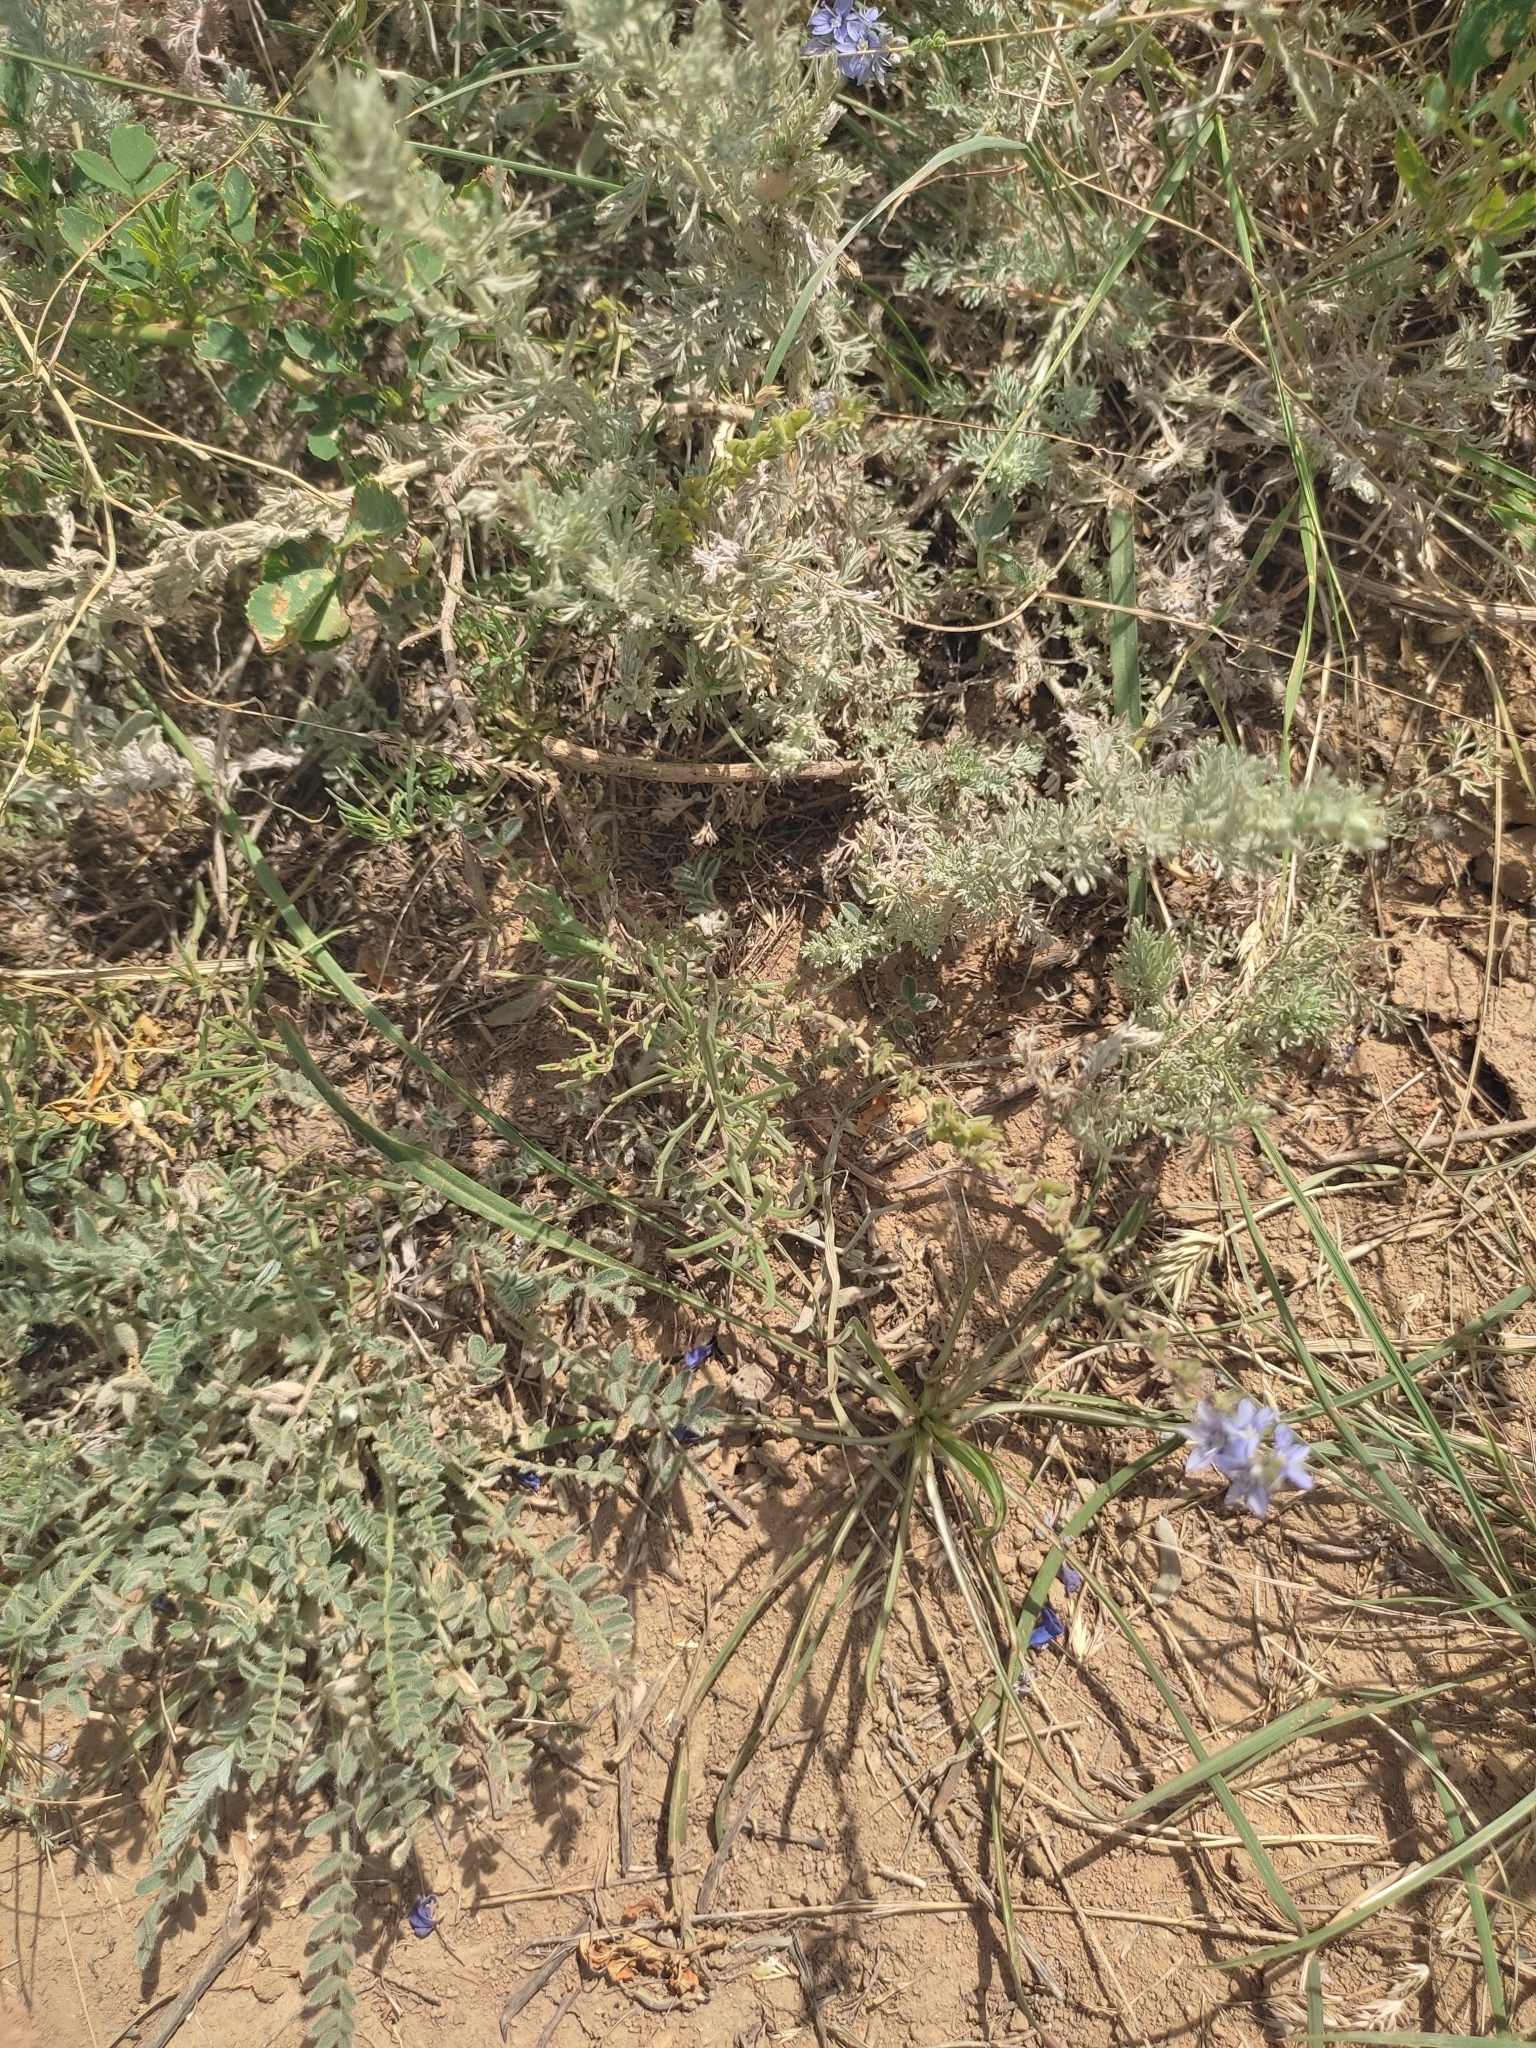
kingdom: Plantae
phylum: Tracheophyta
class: Magnoliopsida
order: Lamiales
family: Plantaginaceae
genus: Veronica
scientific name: Veronica capsellicarpa
